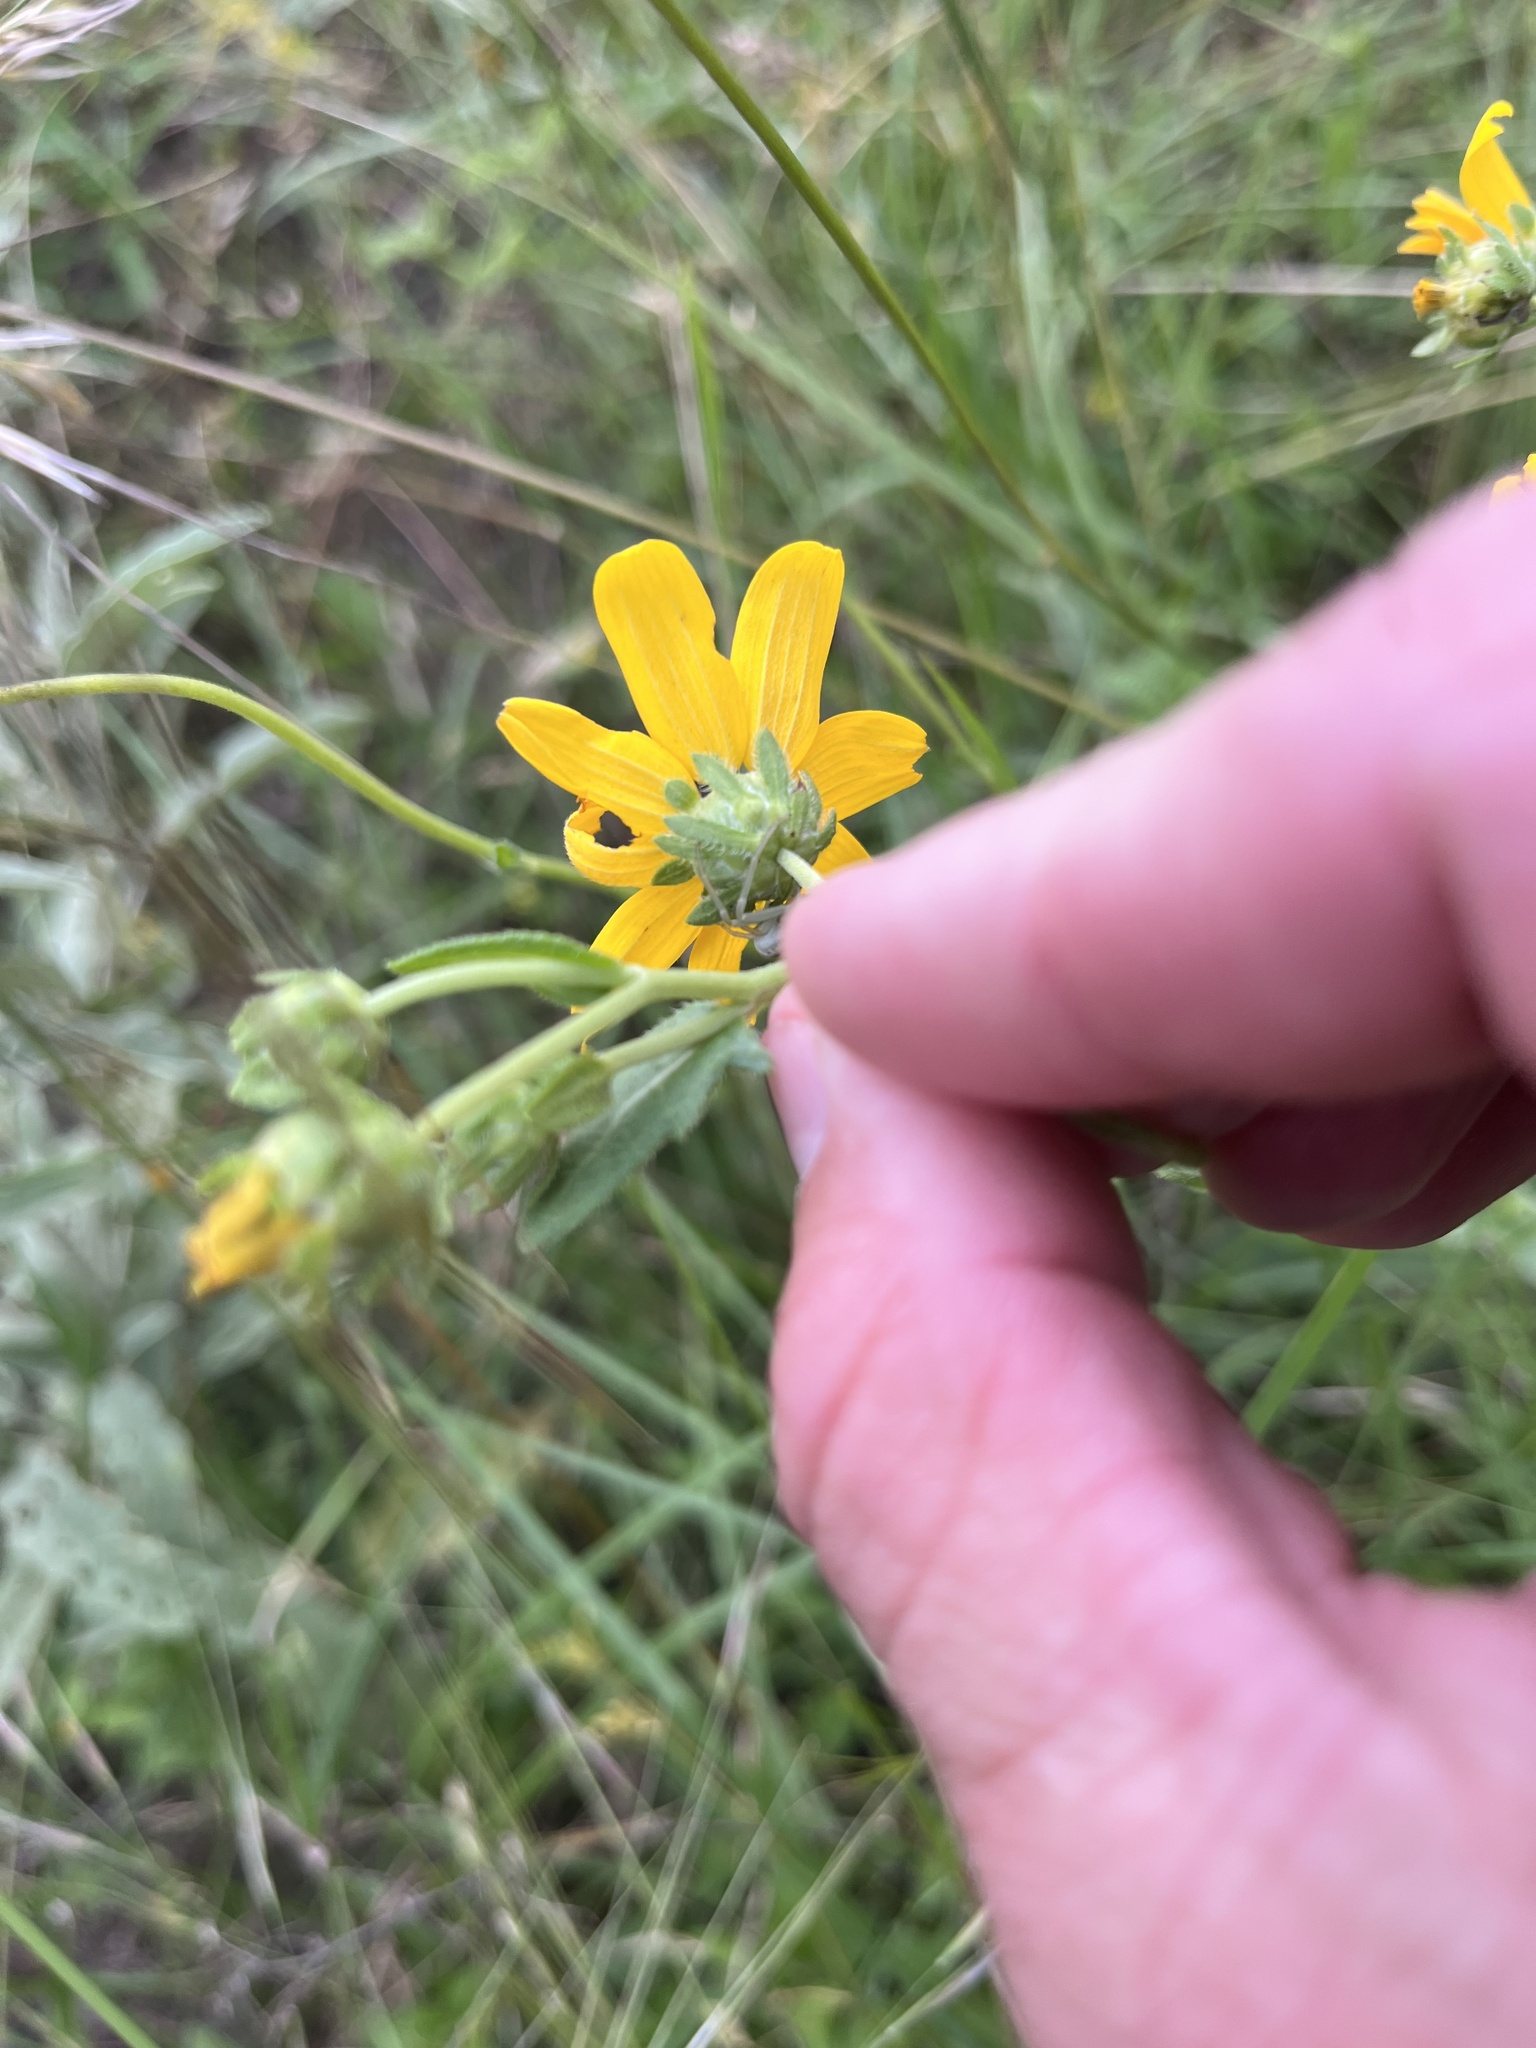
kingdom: Plantae
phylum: Tracheophyta
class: Magnoliopsida
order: Asterales
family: Asteraceae
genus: Engelmannia
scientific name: Engelmannia peristenia
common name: Engelmann's daisy
